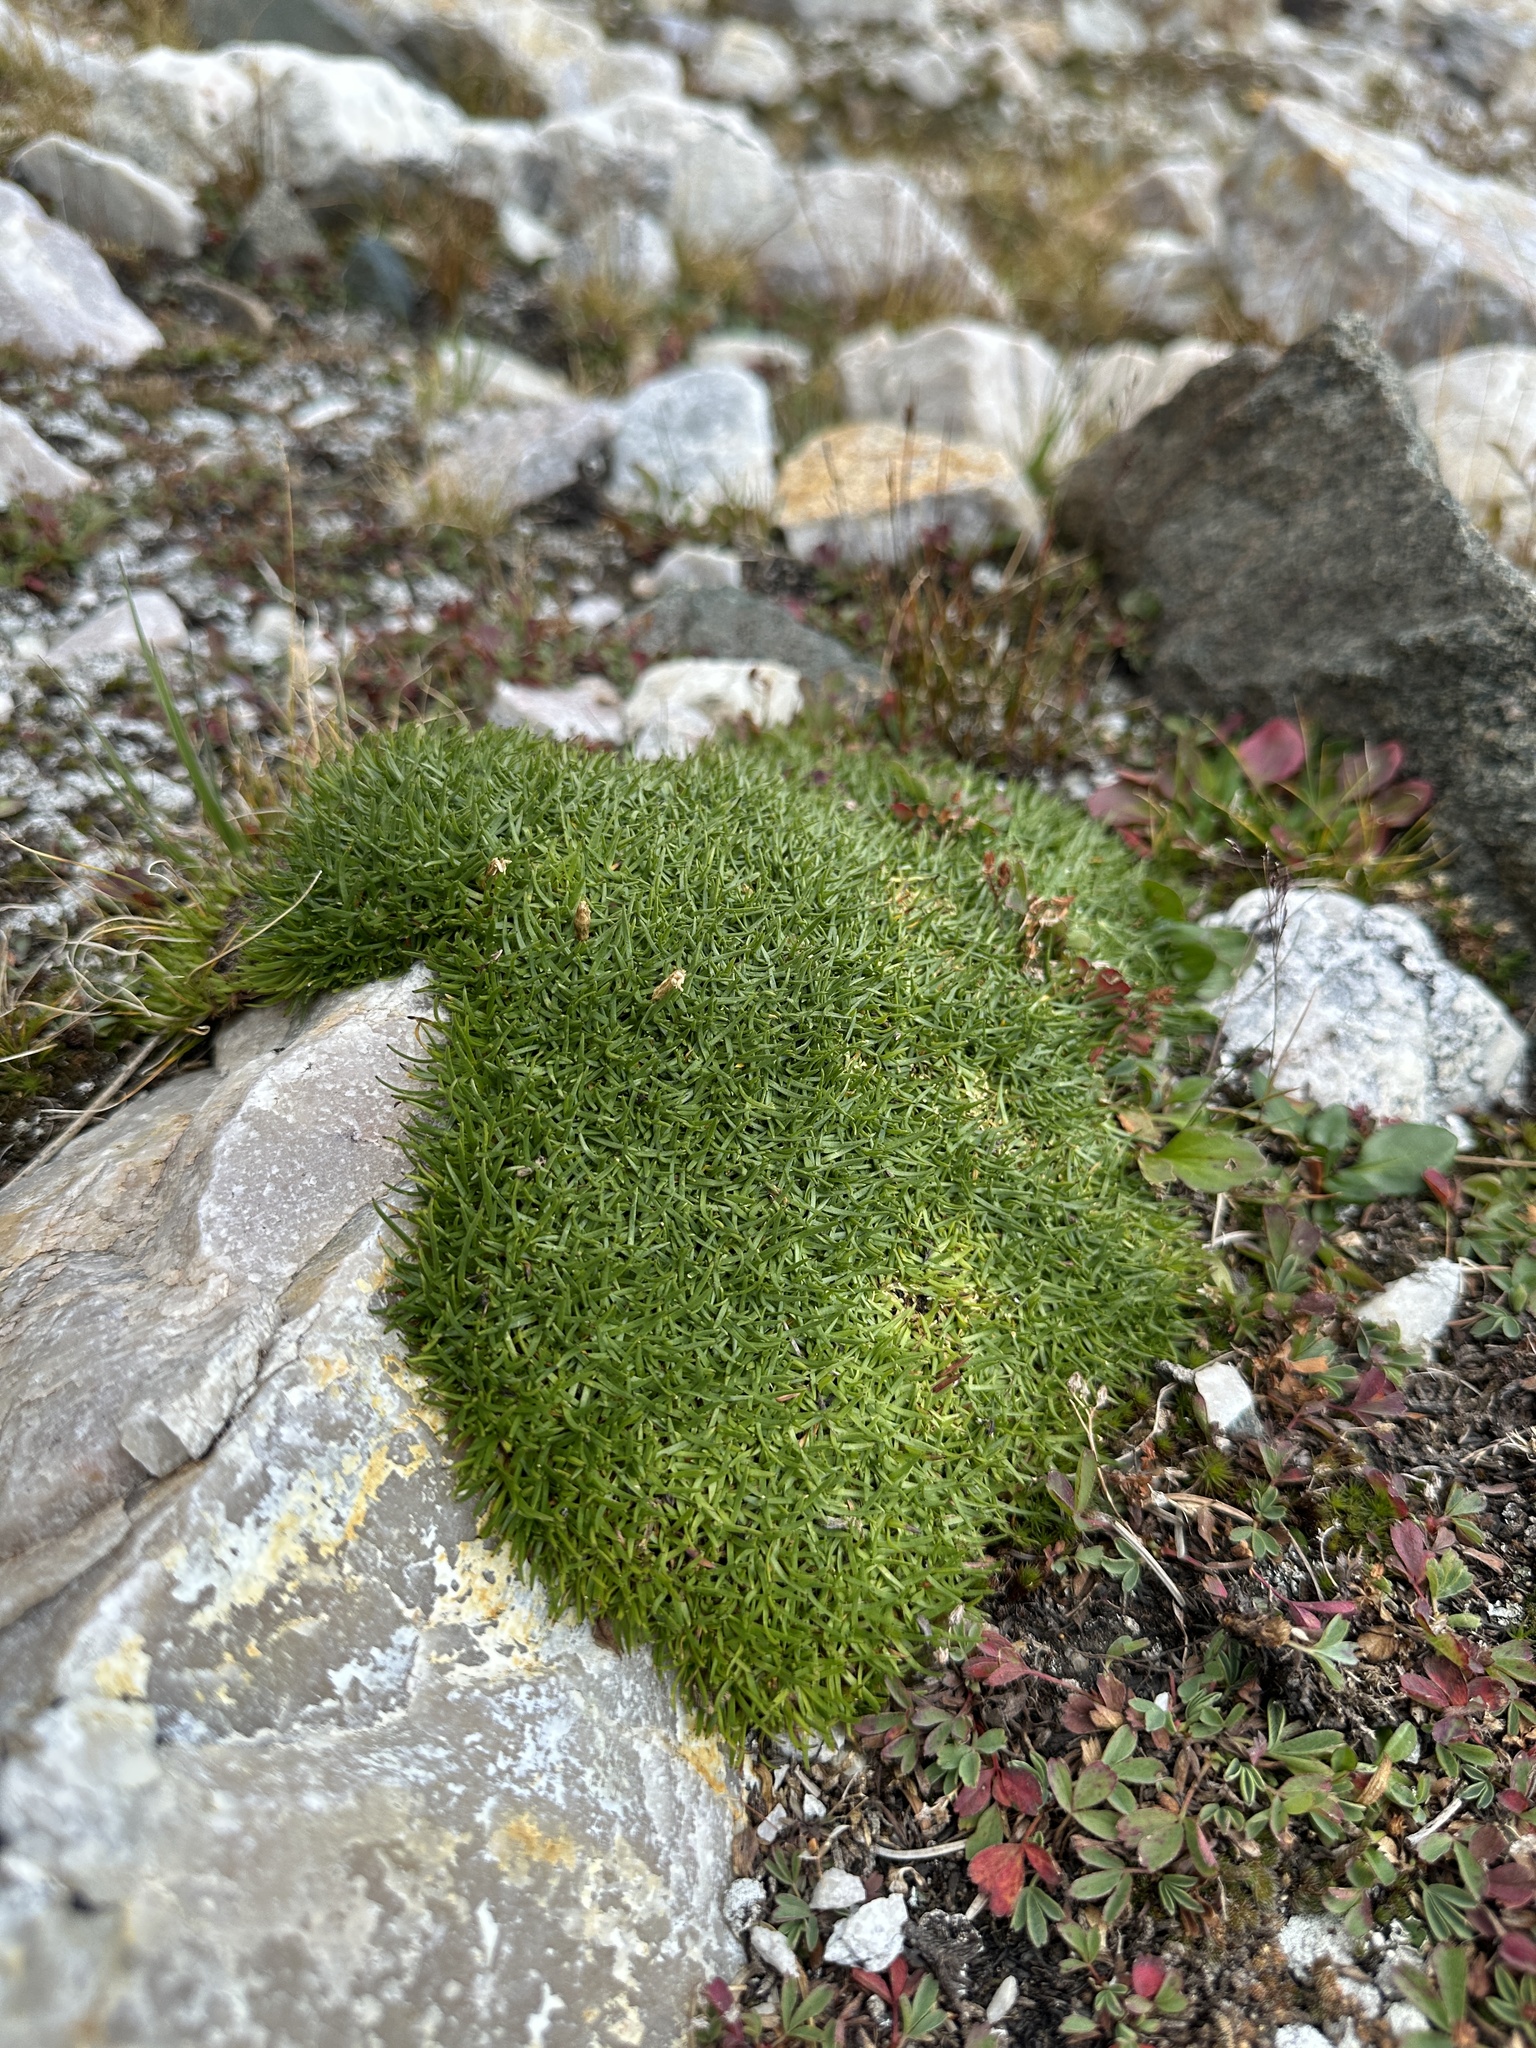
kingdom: Plantae
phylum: Tracheophyta
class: Magnoliopsida
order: Caryophyllales
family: Caryophyllaceae
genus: Silene
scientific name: Silene acaulis
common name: Moss campion
